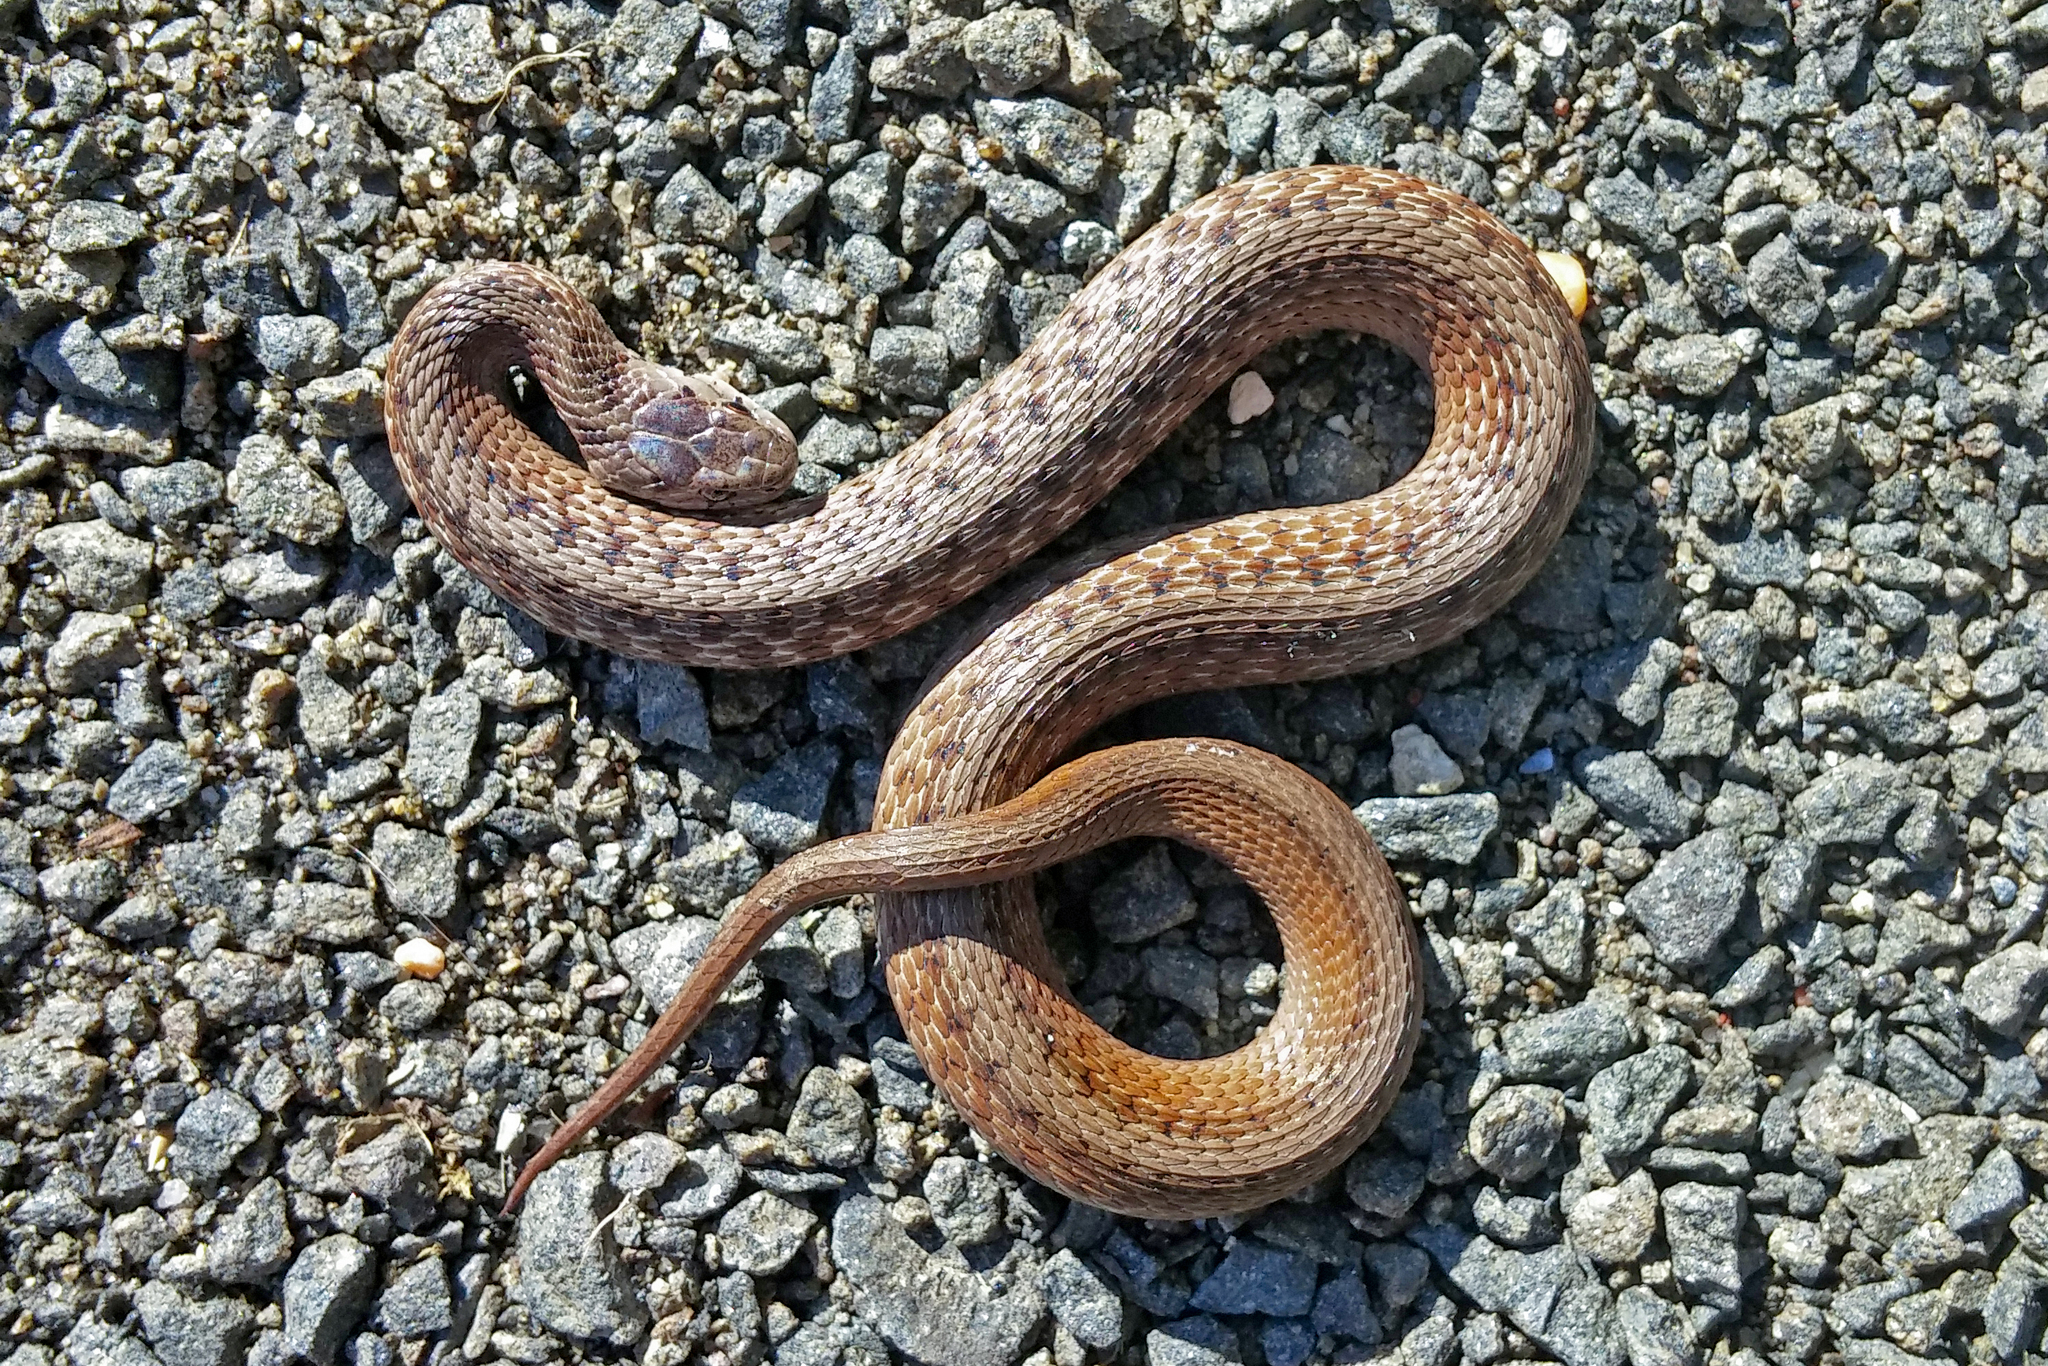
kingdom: Animalia
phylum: Chordata
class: Squamata
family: Colubridae
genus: Storeria
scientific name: Storeria dekayi
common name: (dekay’s) brown snake
